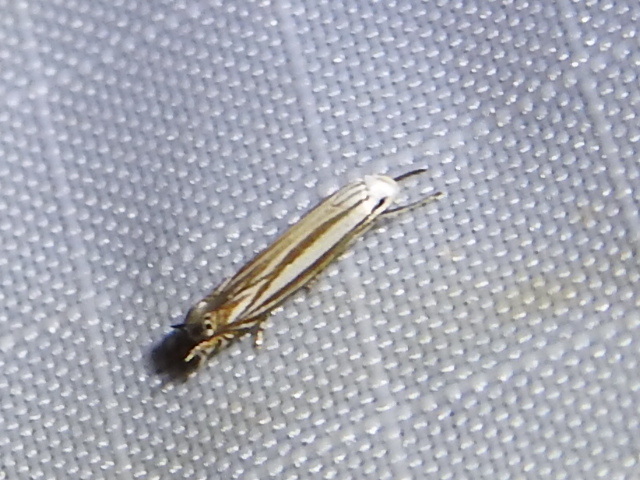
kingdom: Animalia
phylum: Arthropoda
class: Insecta
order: Lepidoptera
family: Gelechiidae
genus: Polyhymno
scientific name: Polyhymno luteostrigella
